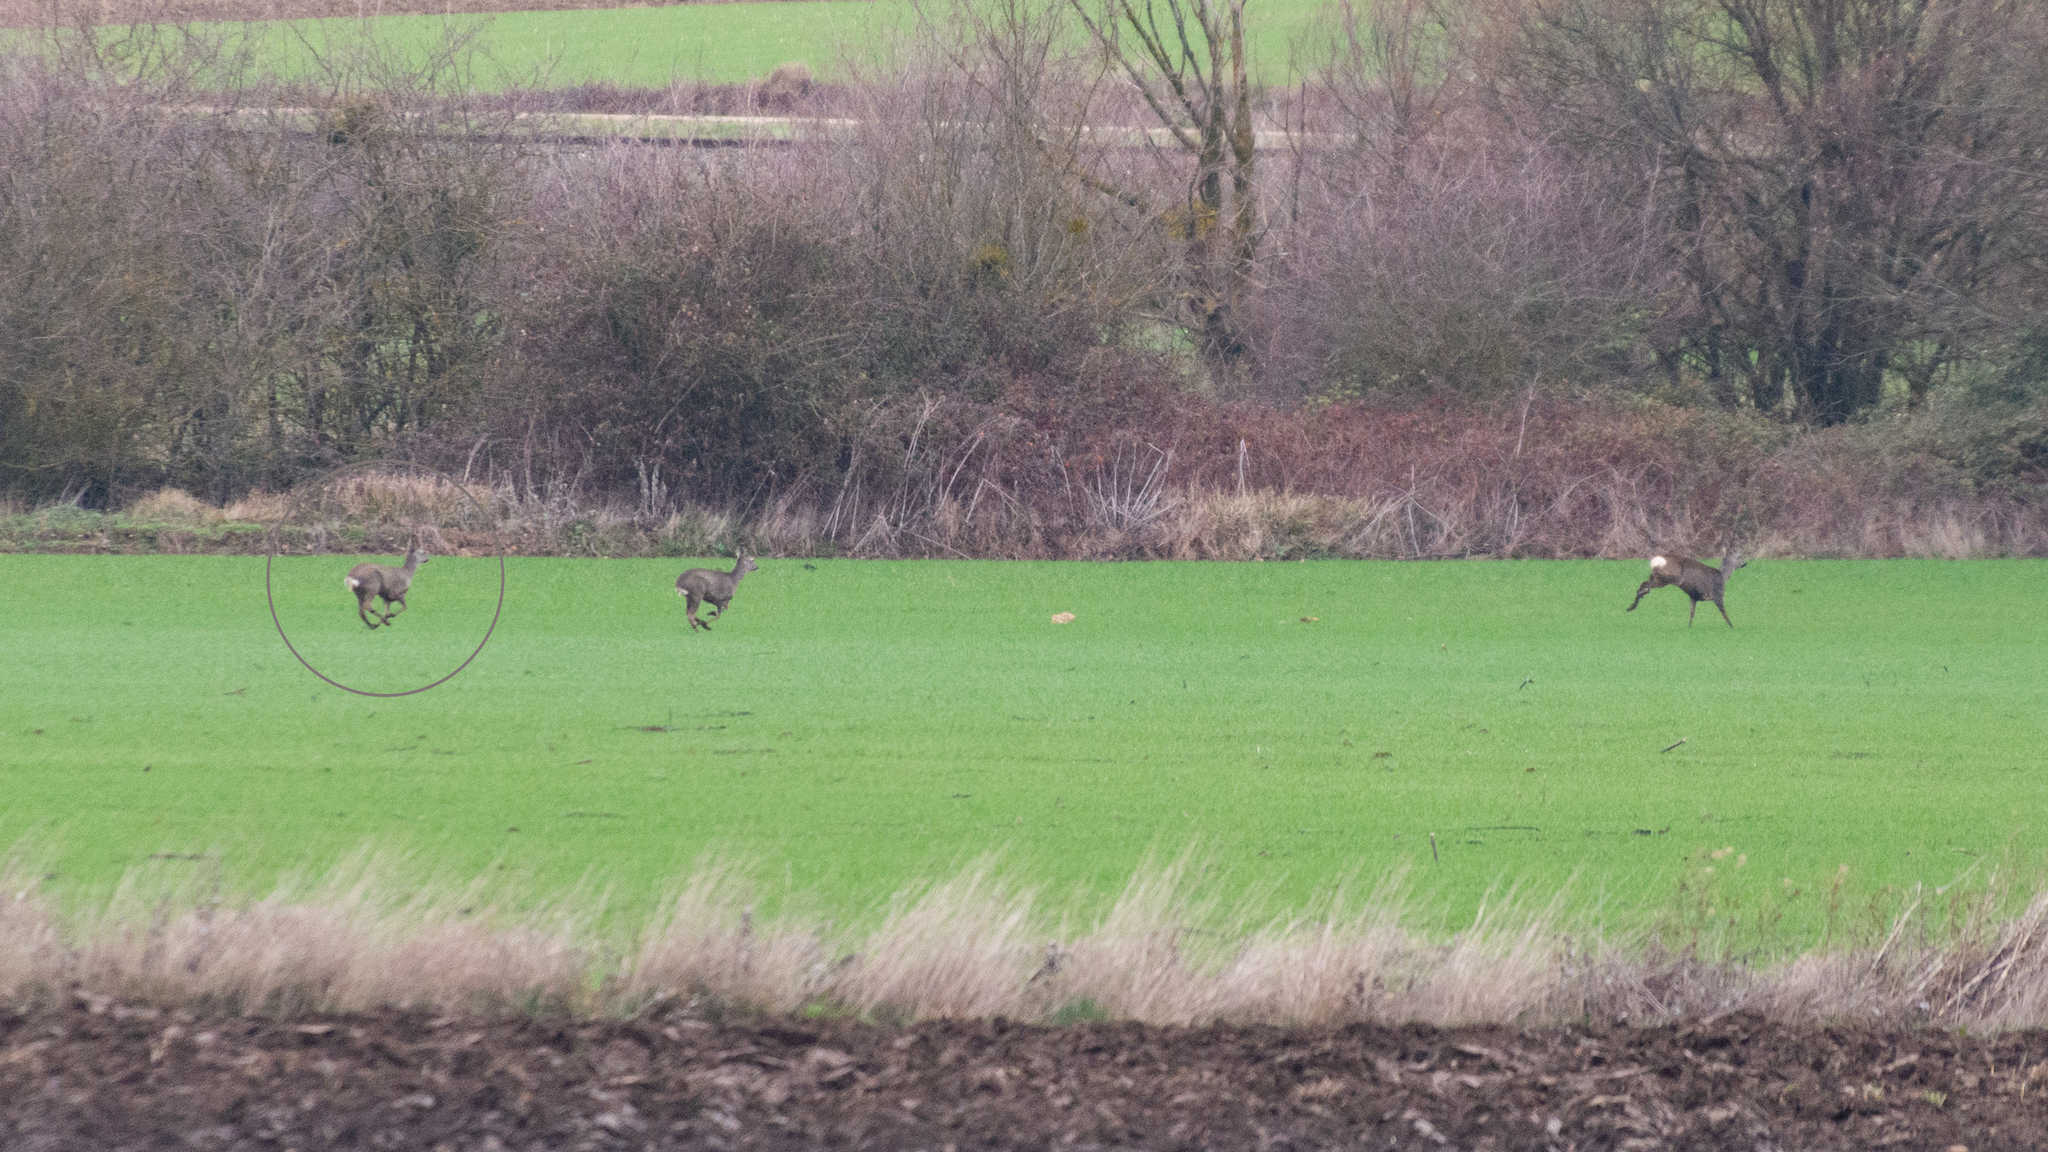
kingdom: Animalia
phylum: Chordata
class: Mammalia
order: Artiodactyla
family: Cervidae
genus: Capreolus
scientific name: Capreolus capreolus
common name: Western roe deer
